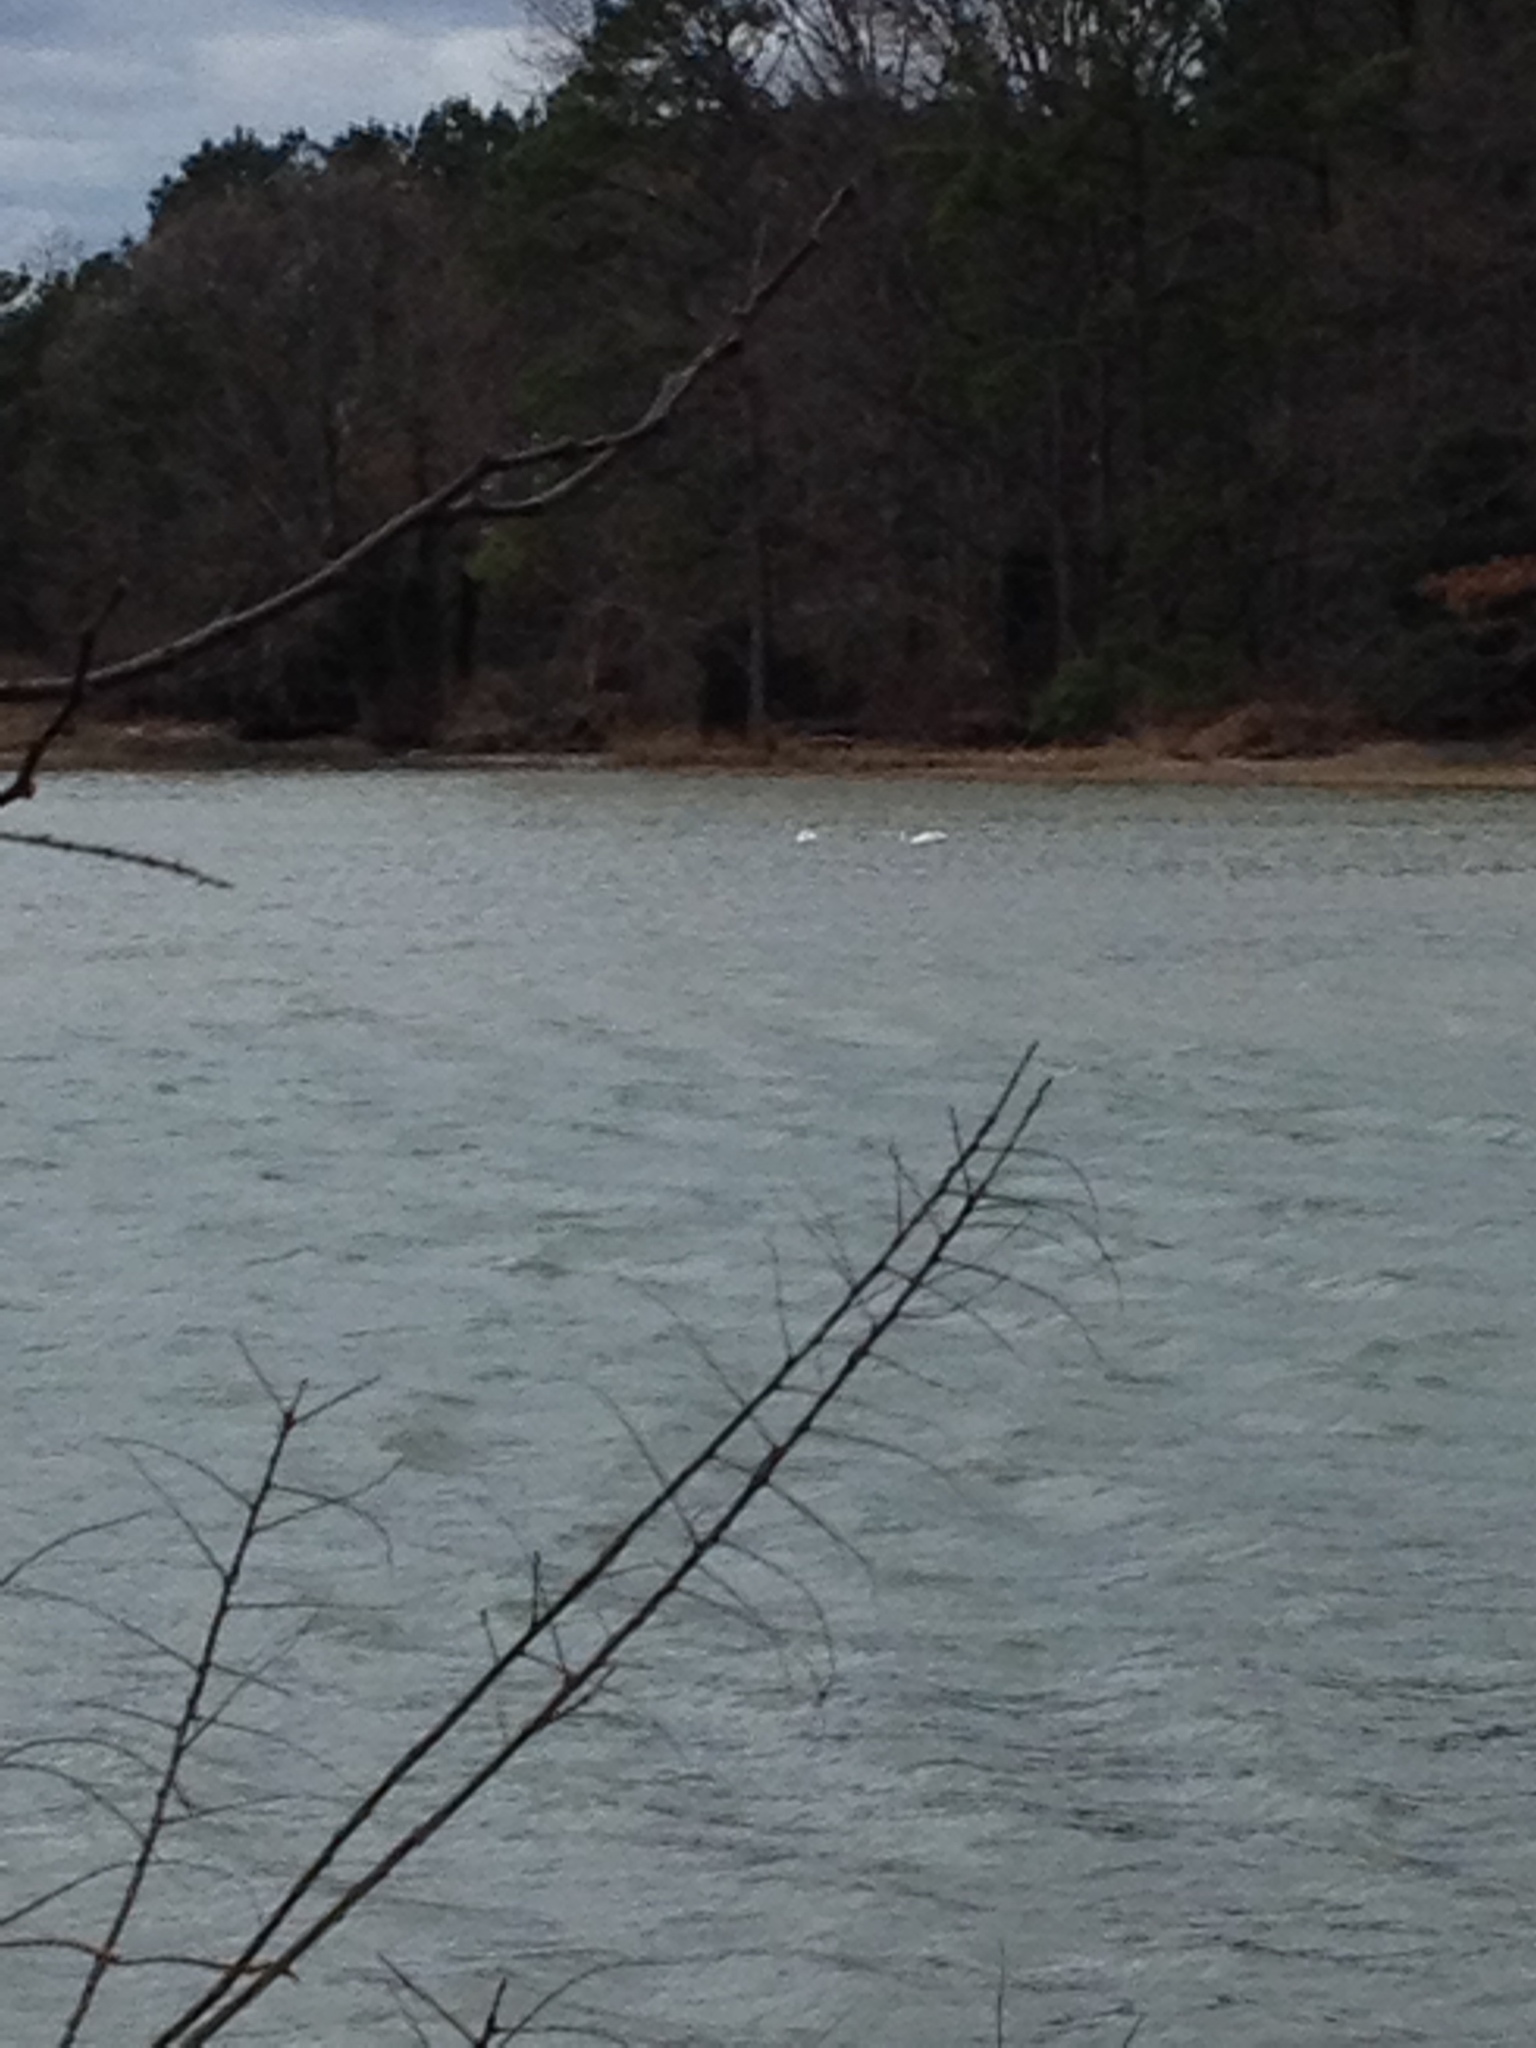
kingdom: Animalia
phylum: Chordata
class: Aves
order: Anseriformes
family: Anatidae
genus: Cygnus
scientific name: Cygnus columbianus
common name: Tundra swan
